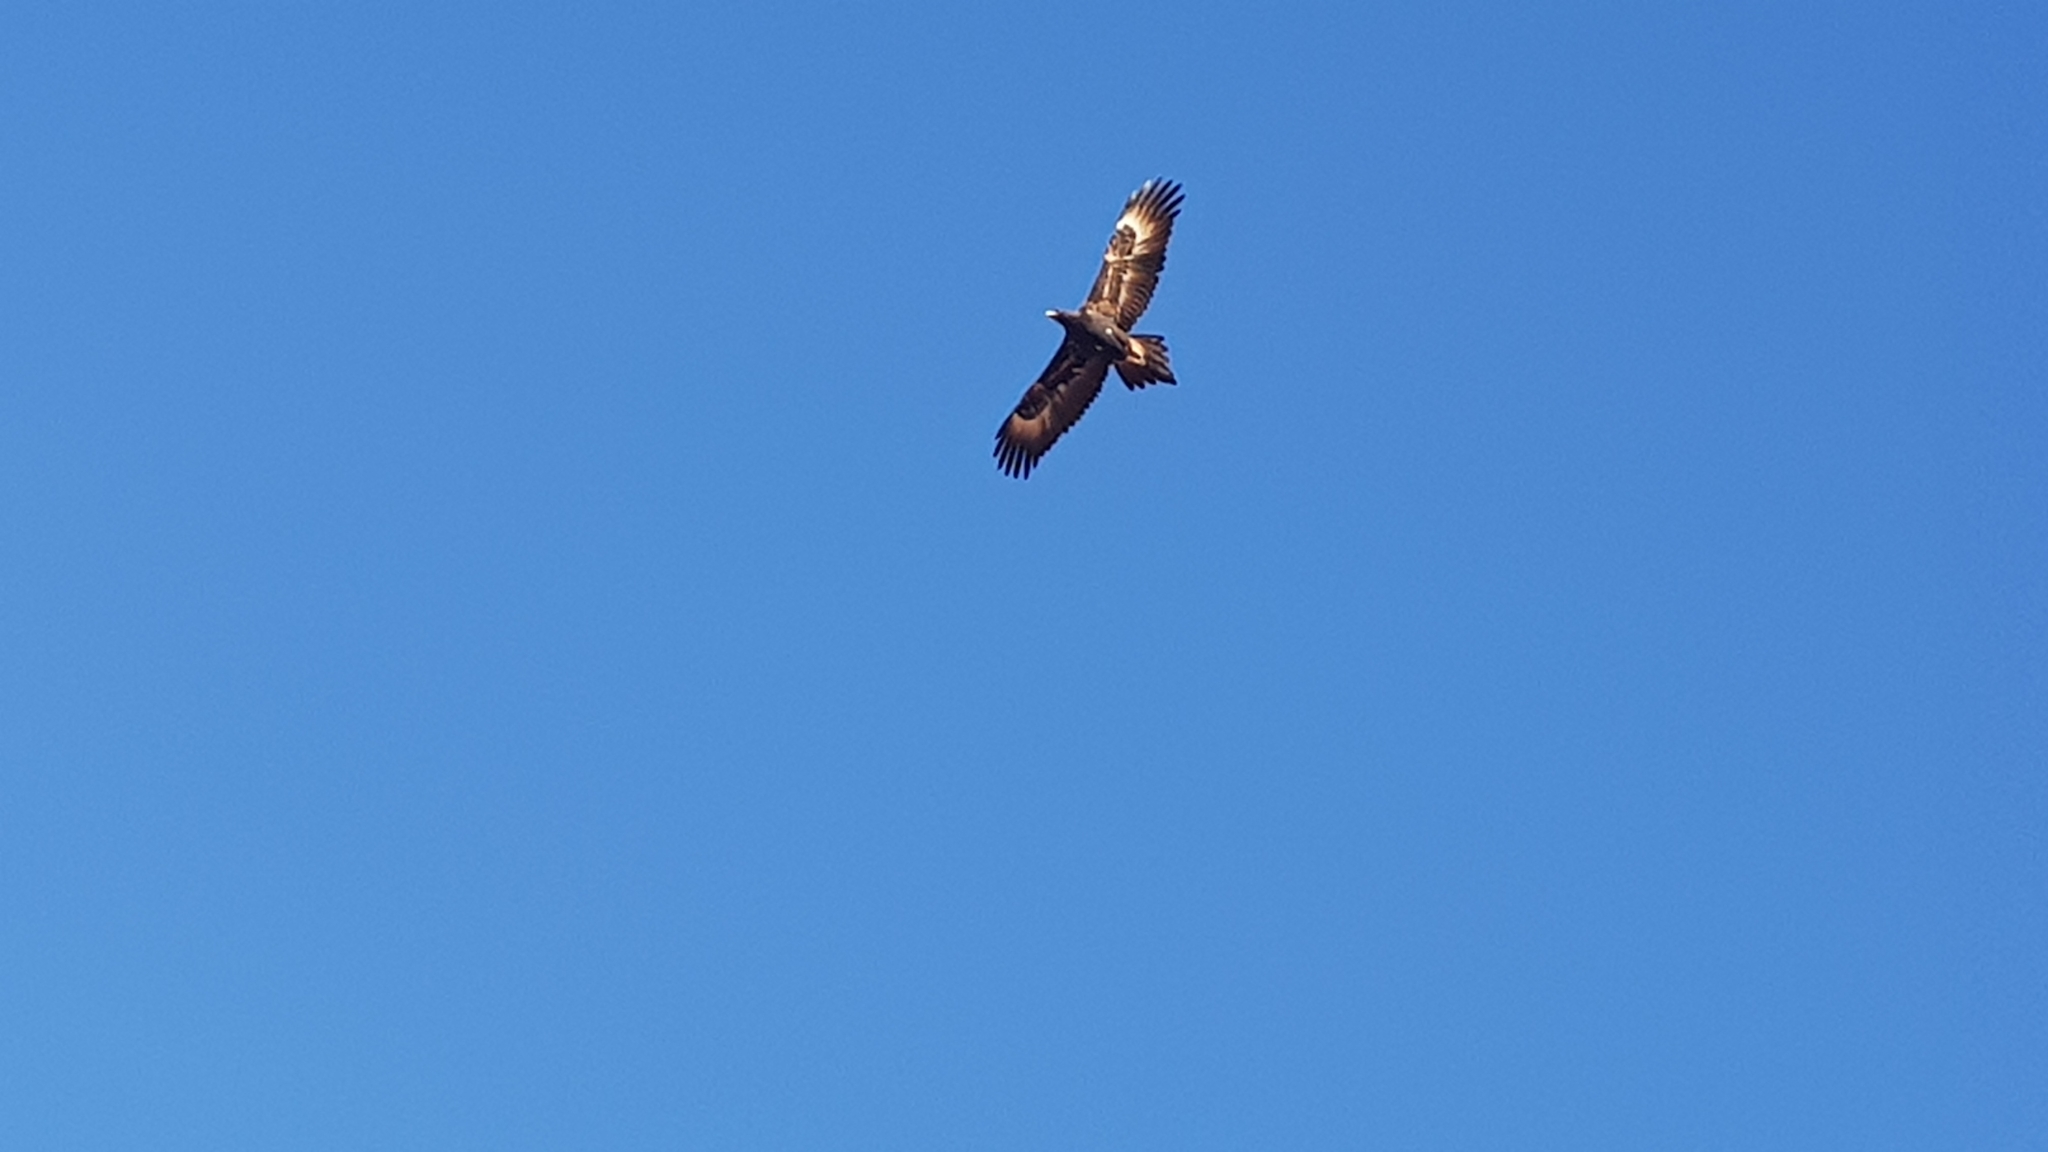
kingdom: Animalia
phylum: Chordata
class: Aves
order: Accipitriformes
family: Accipitridae
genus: Aquila
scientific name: Aquila audax
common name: Wedge-tailed eagle
